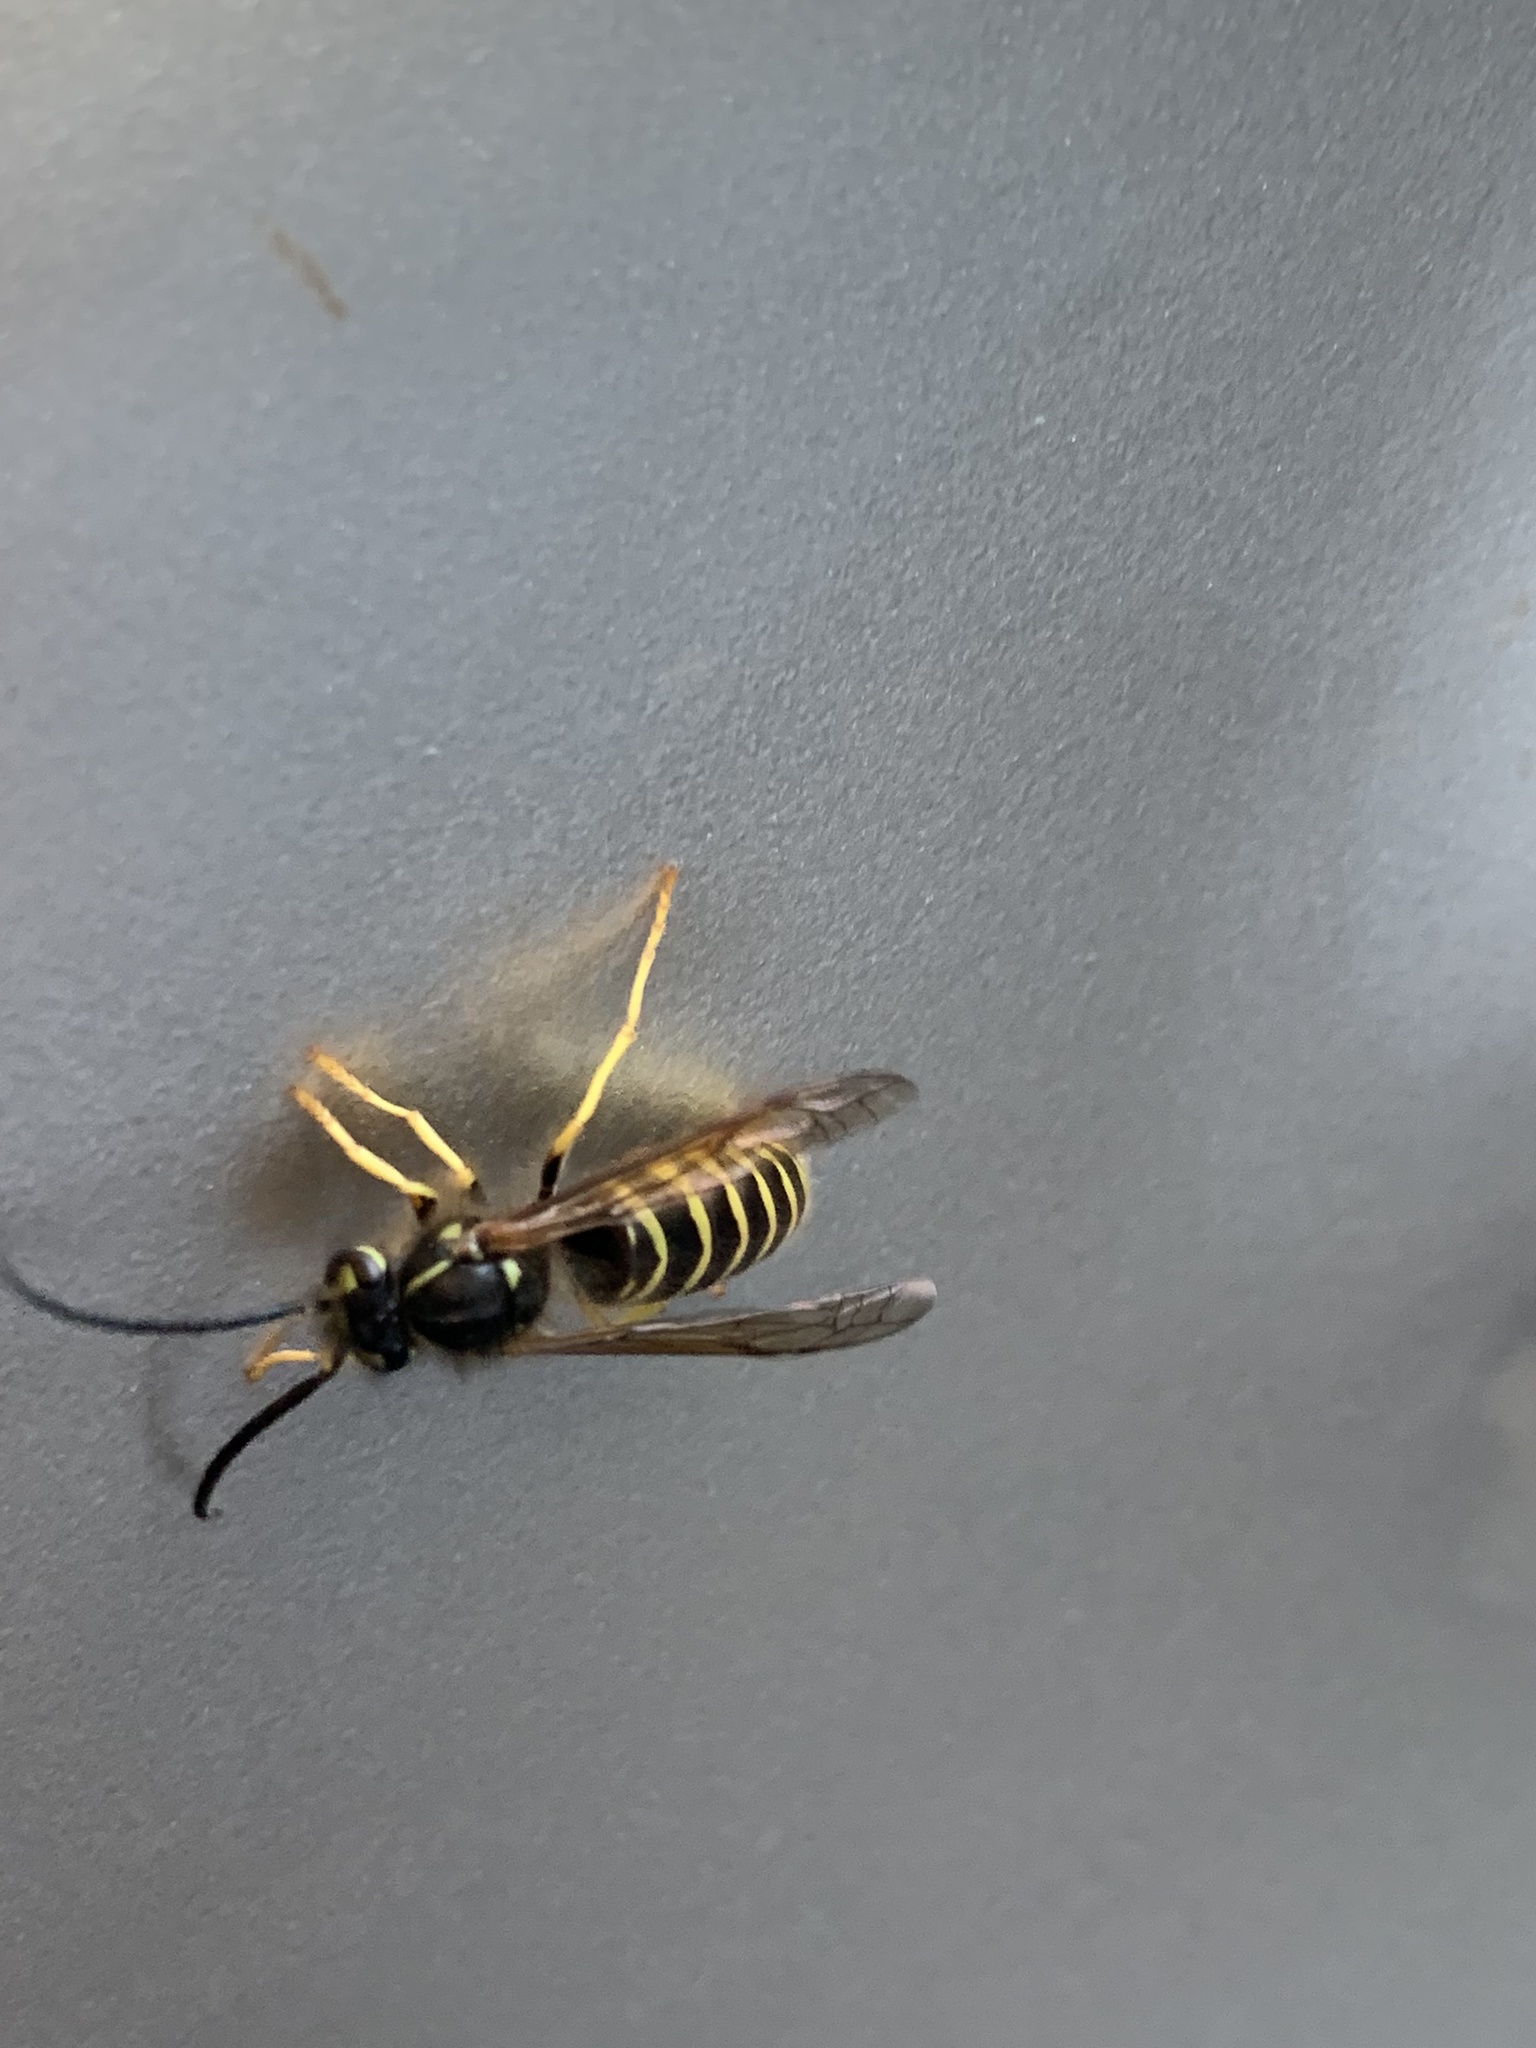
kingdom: Animalia
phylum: Arthropoda
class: Insecta
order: Hymenoptera
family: Vespidae
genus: Vespula
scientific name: Vespula maculifrons
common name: Eastern yellowjacket
